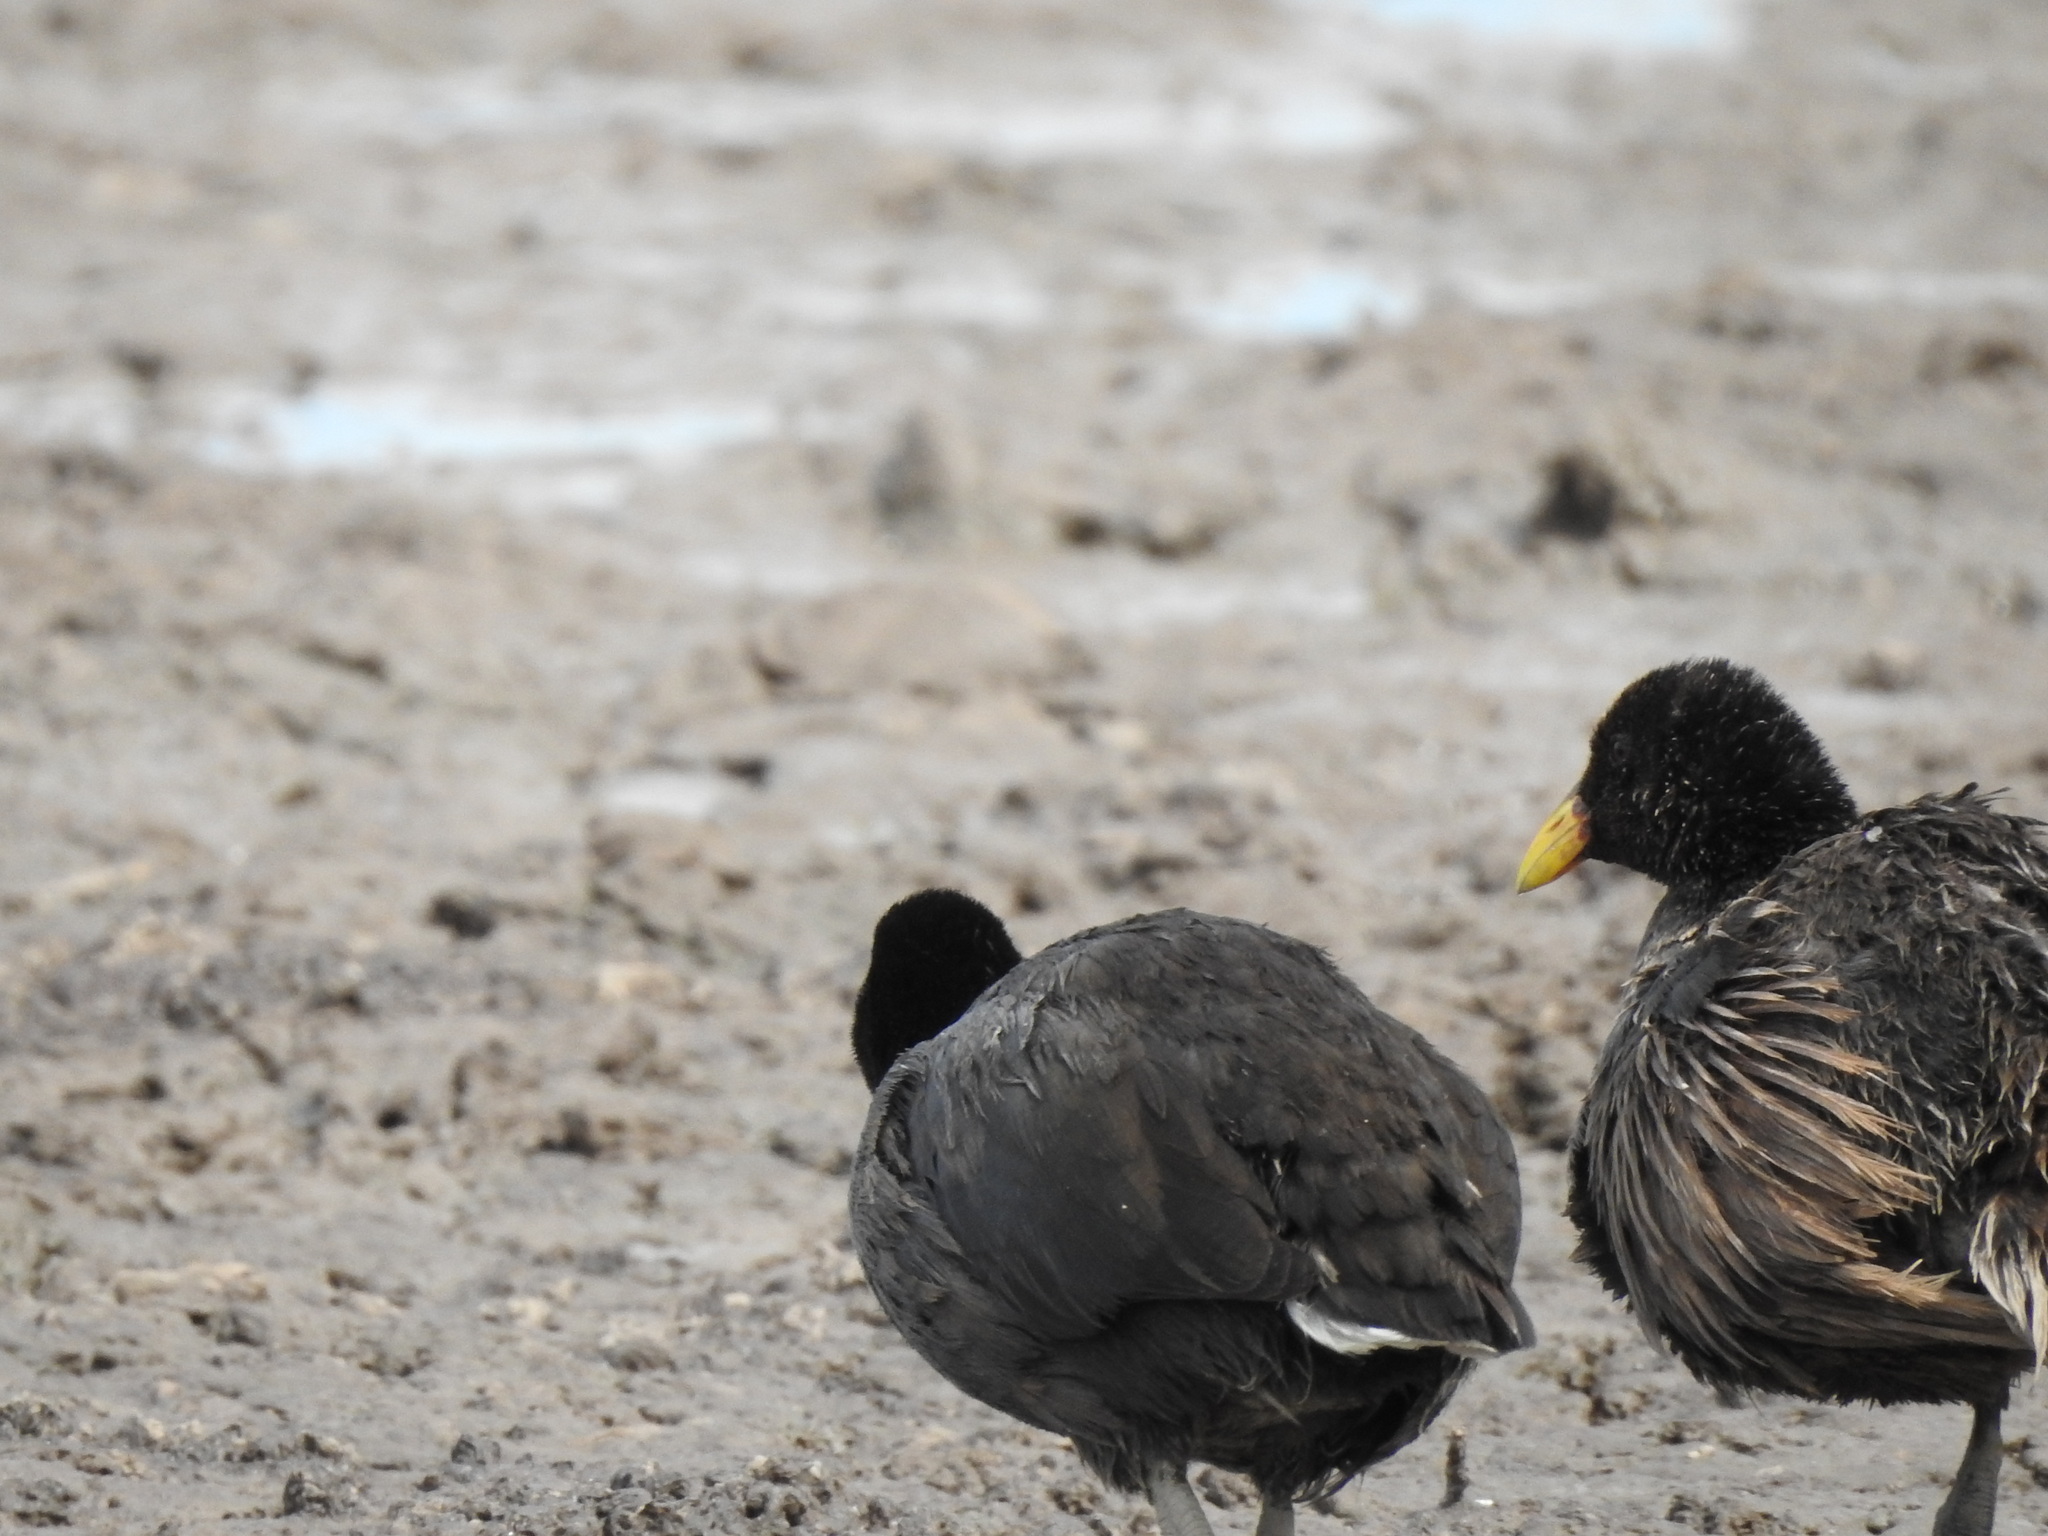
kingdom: Animalia
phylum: Chordata
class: Aves
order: Gruiformes
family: Rallidae
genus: Fulica
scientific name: Fulica rufifrons
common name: Red-fronted coot
